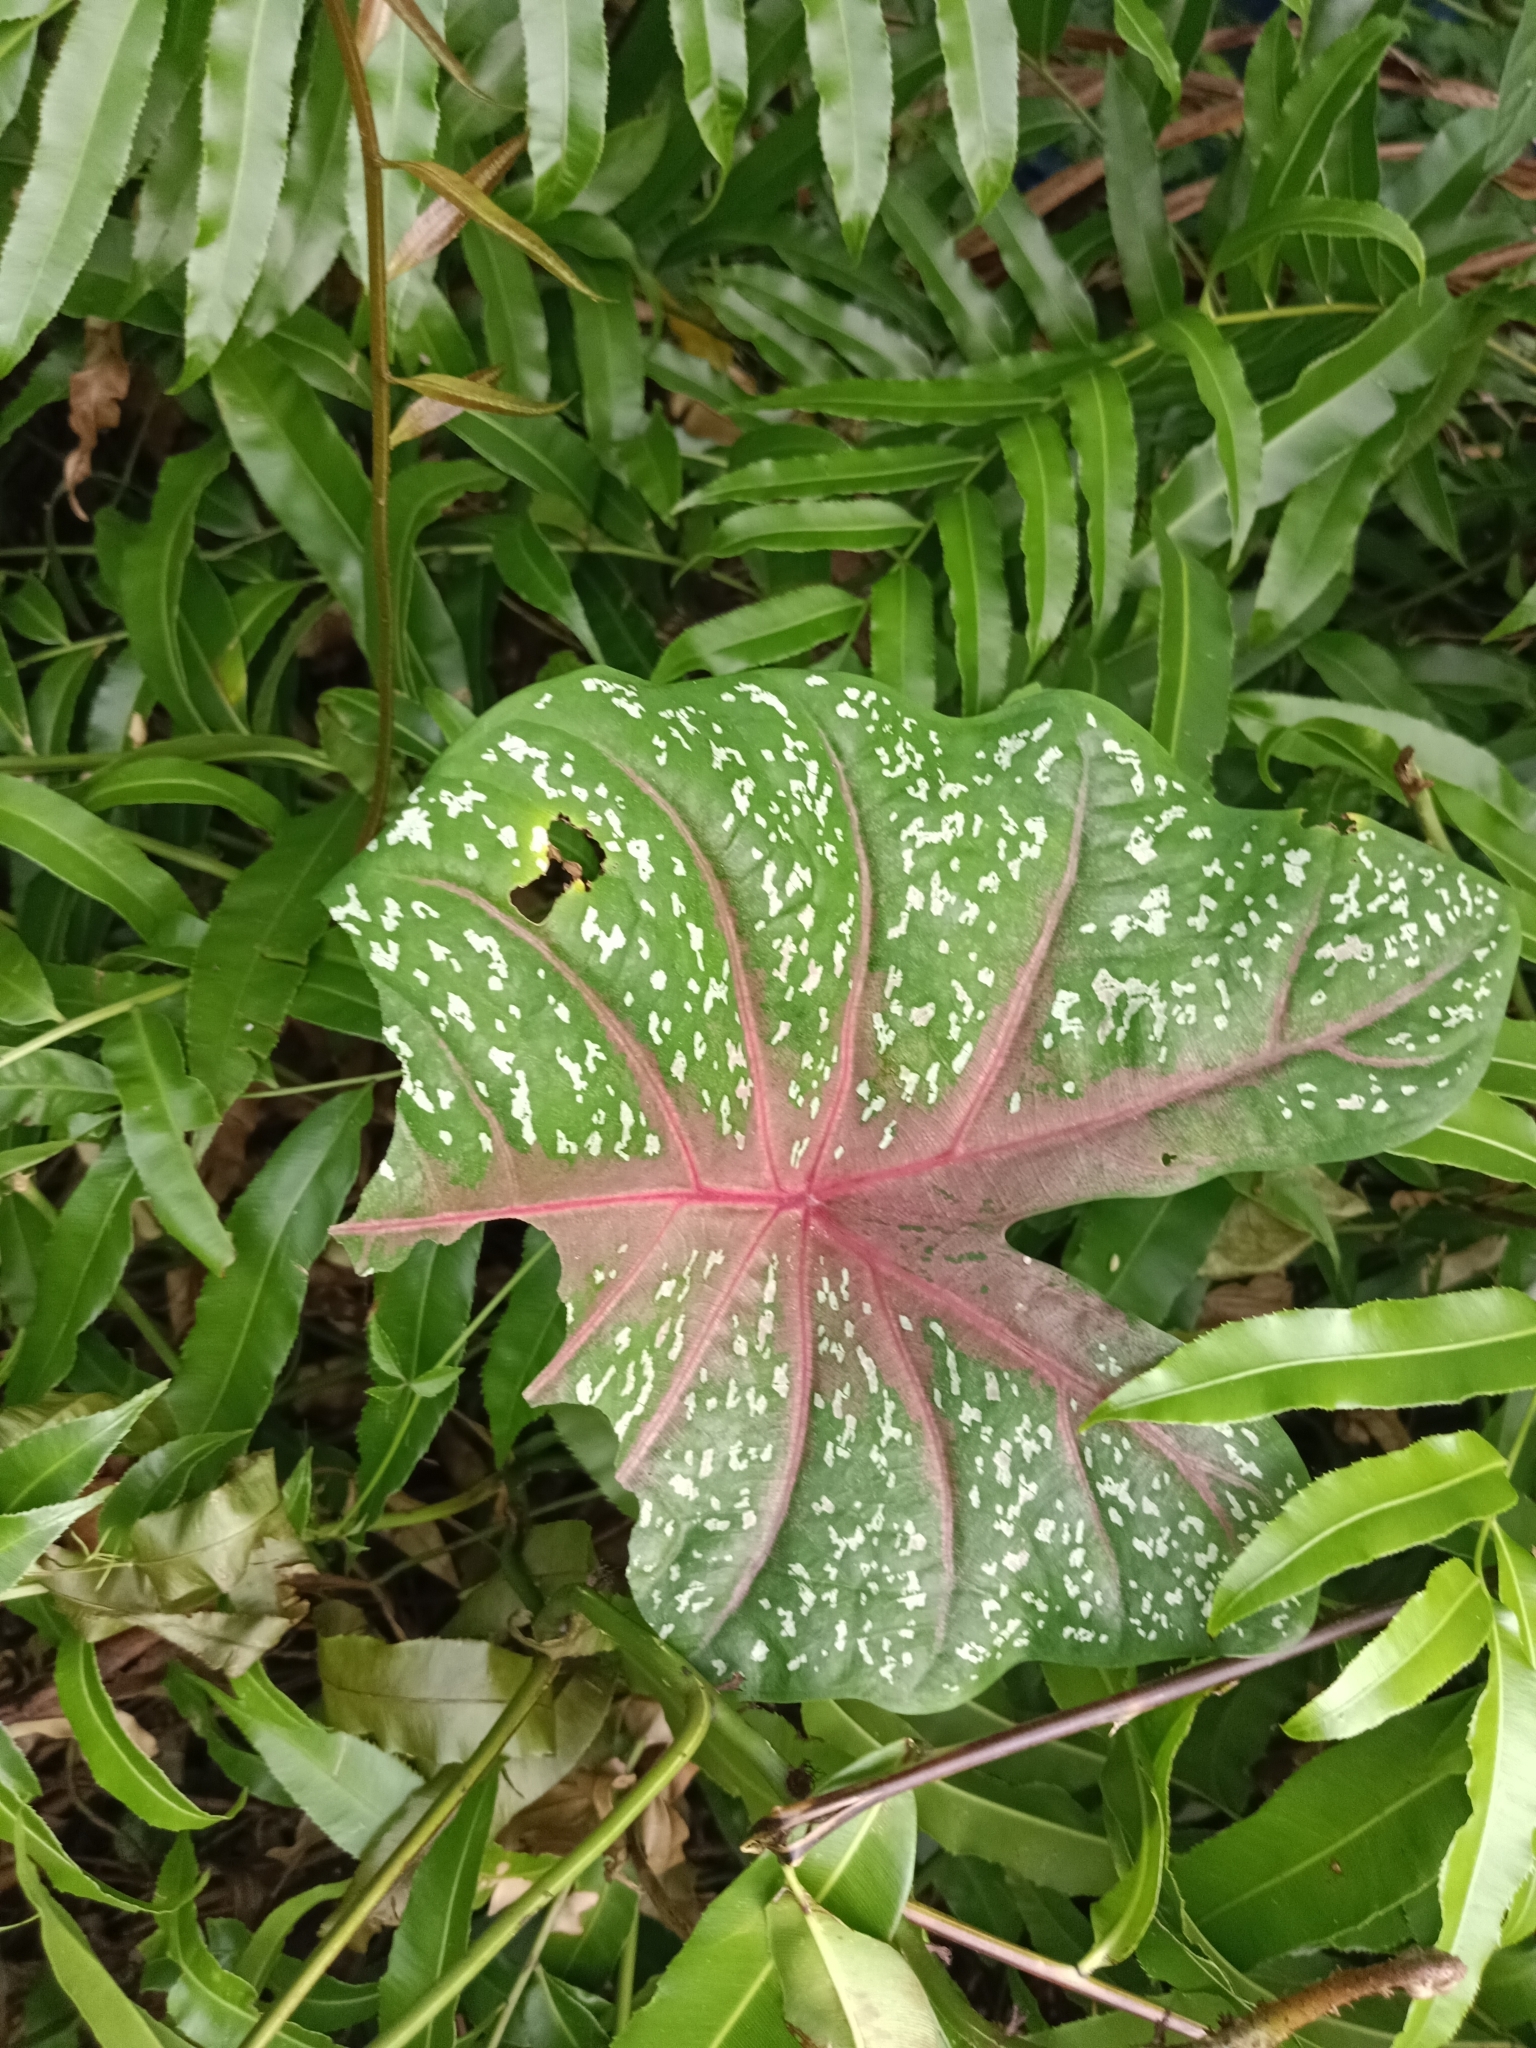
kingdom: Plantae
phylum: Tracheophyta
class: Liliopsida
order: Alismatales
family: Araceae
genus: Caladium
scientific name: Caladium bicolor
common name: Artist's pallet
